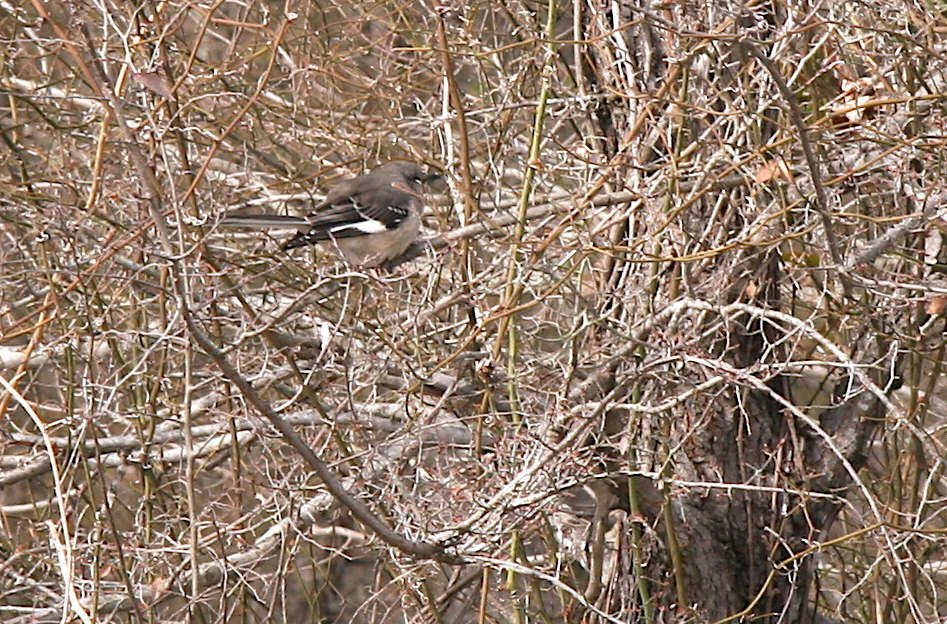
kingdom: Animalia
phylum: Chordata
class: Aves
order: Passeriformes
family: Mimidae
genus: Mimus
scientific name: Mimus polyglottos
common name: Northern mockingbird
